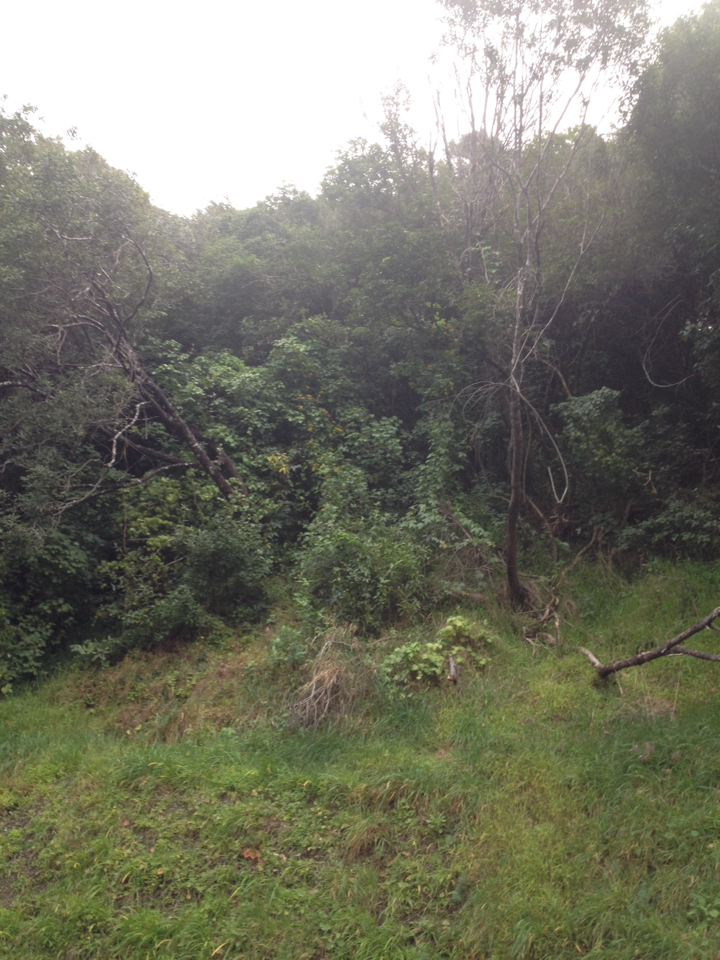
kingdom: Plantae
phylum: Tracheophyta
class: Magnoliopsida
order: Asterales
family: Asteraceae
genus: Delairea
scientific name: Delairea odorata
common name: Cape-ivy
